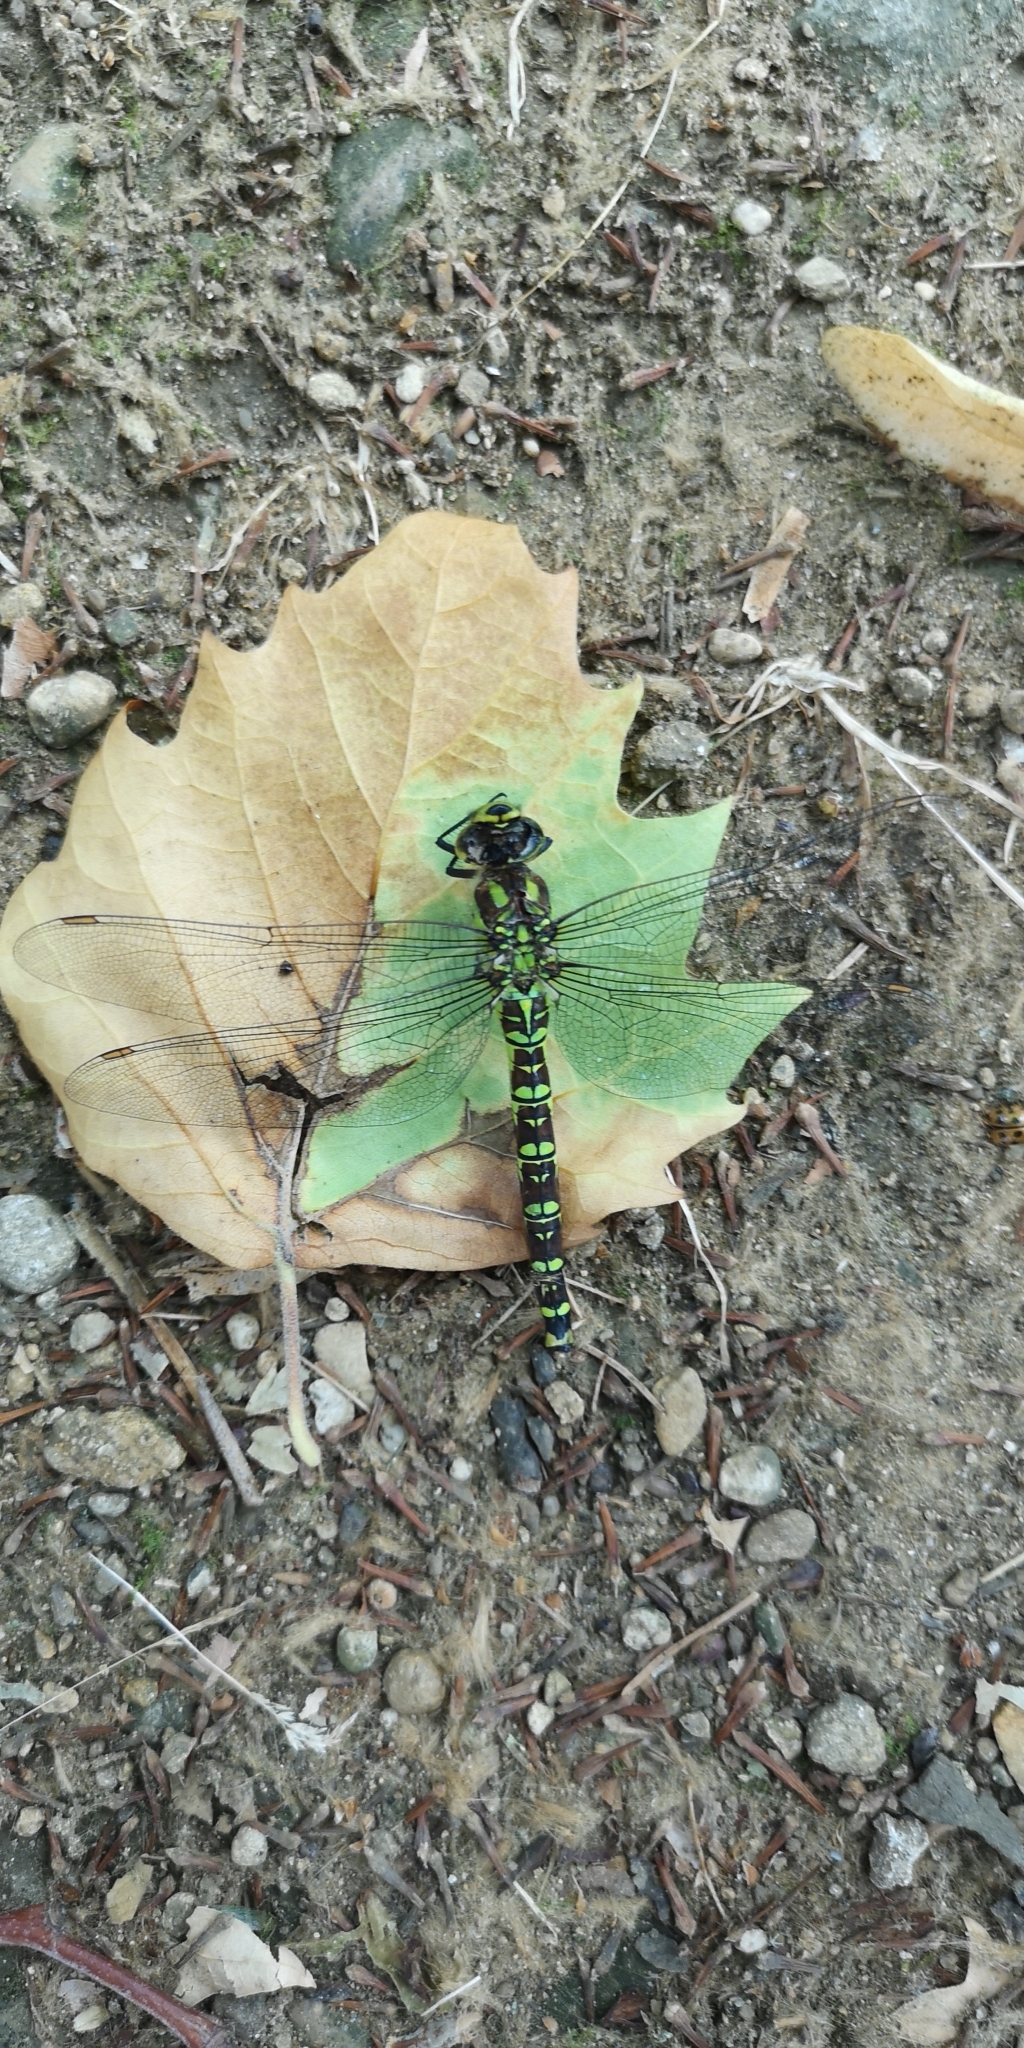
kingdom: Animalia
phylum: Arthropoda
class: Insecta
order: Odonata
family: Aeshnidae
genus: Aeshna
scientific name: Aeshna cyanea
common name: Southern hawker
